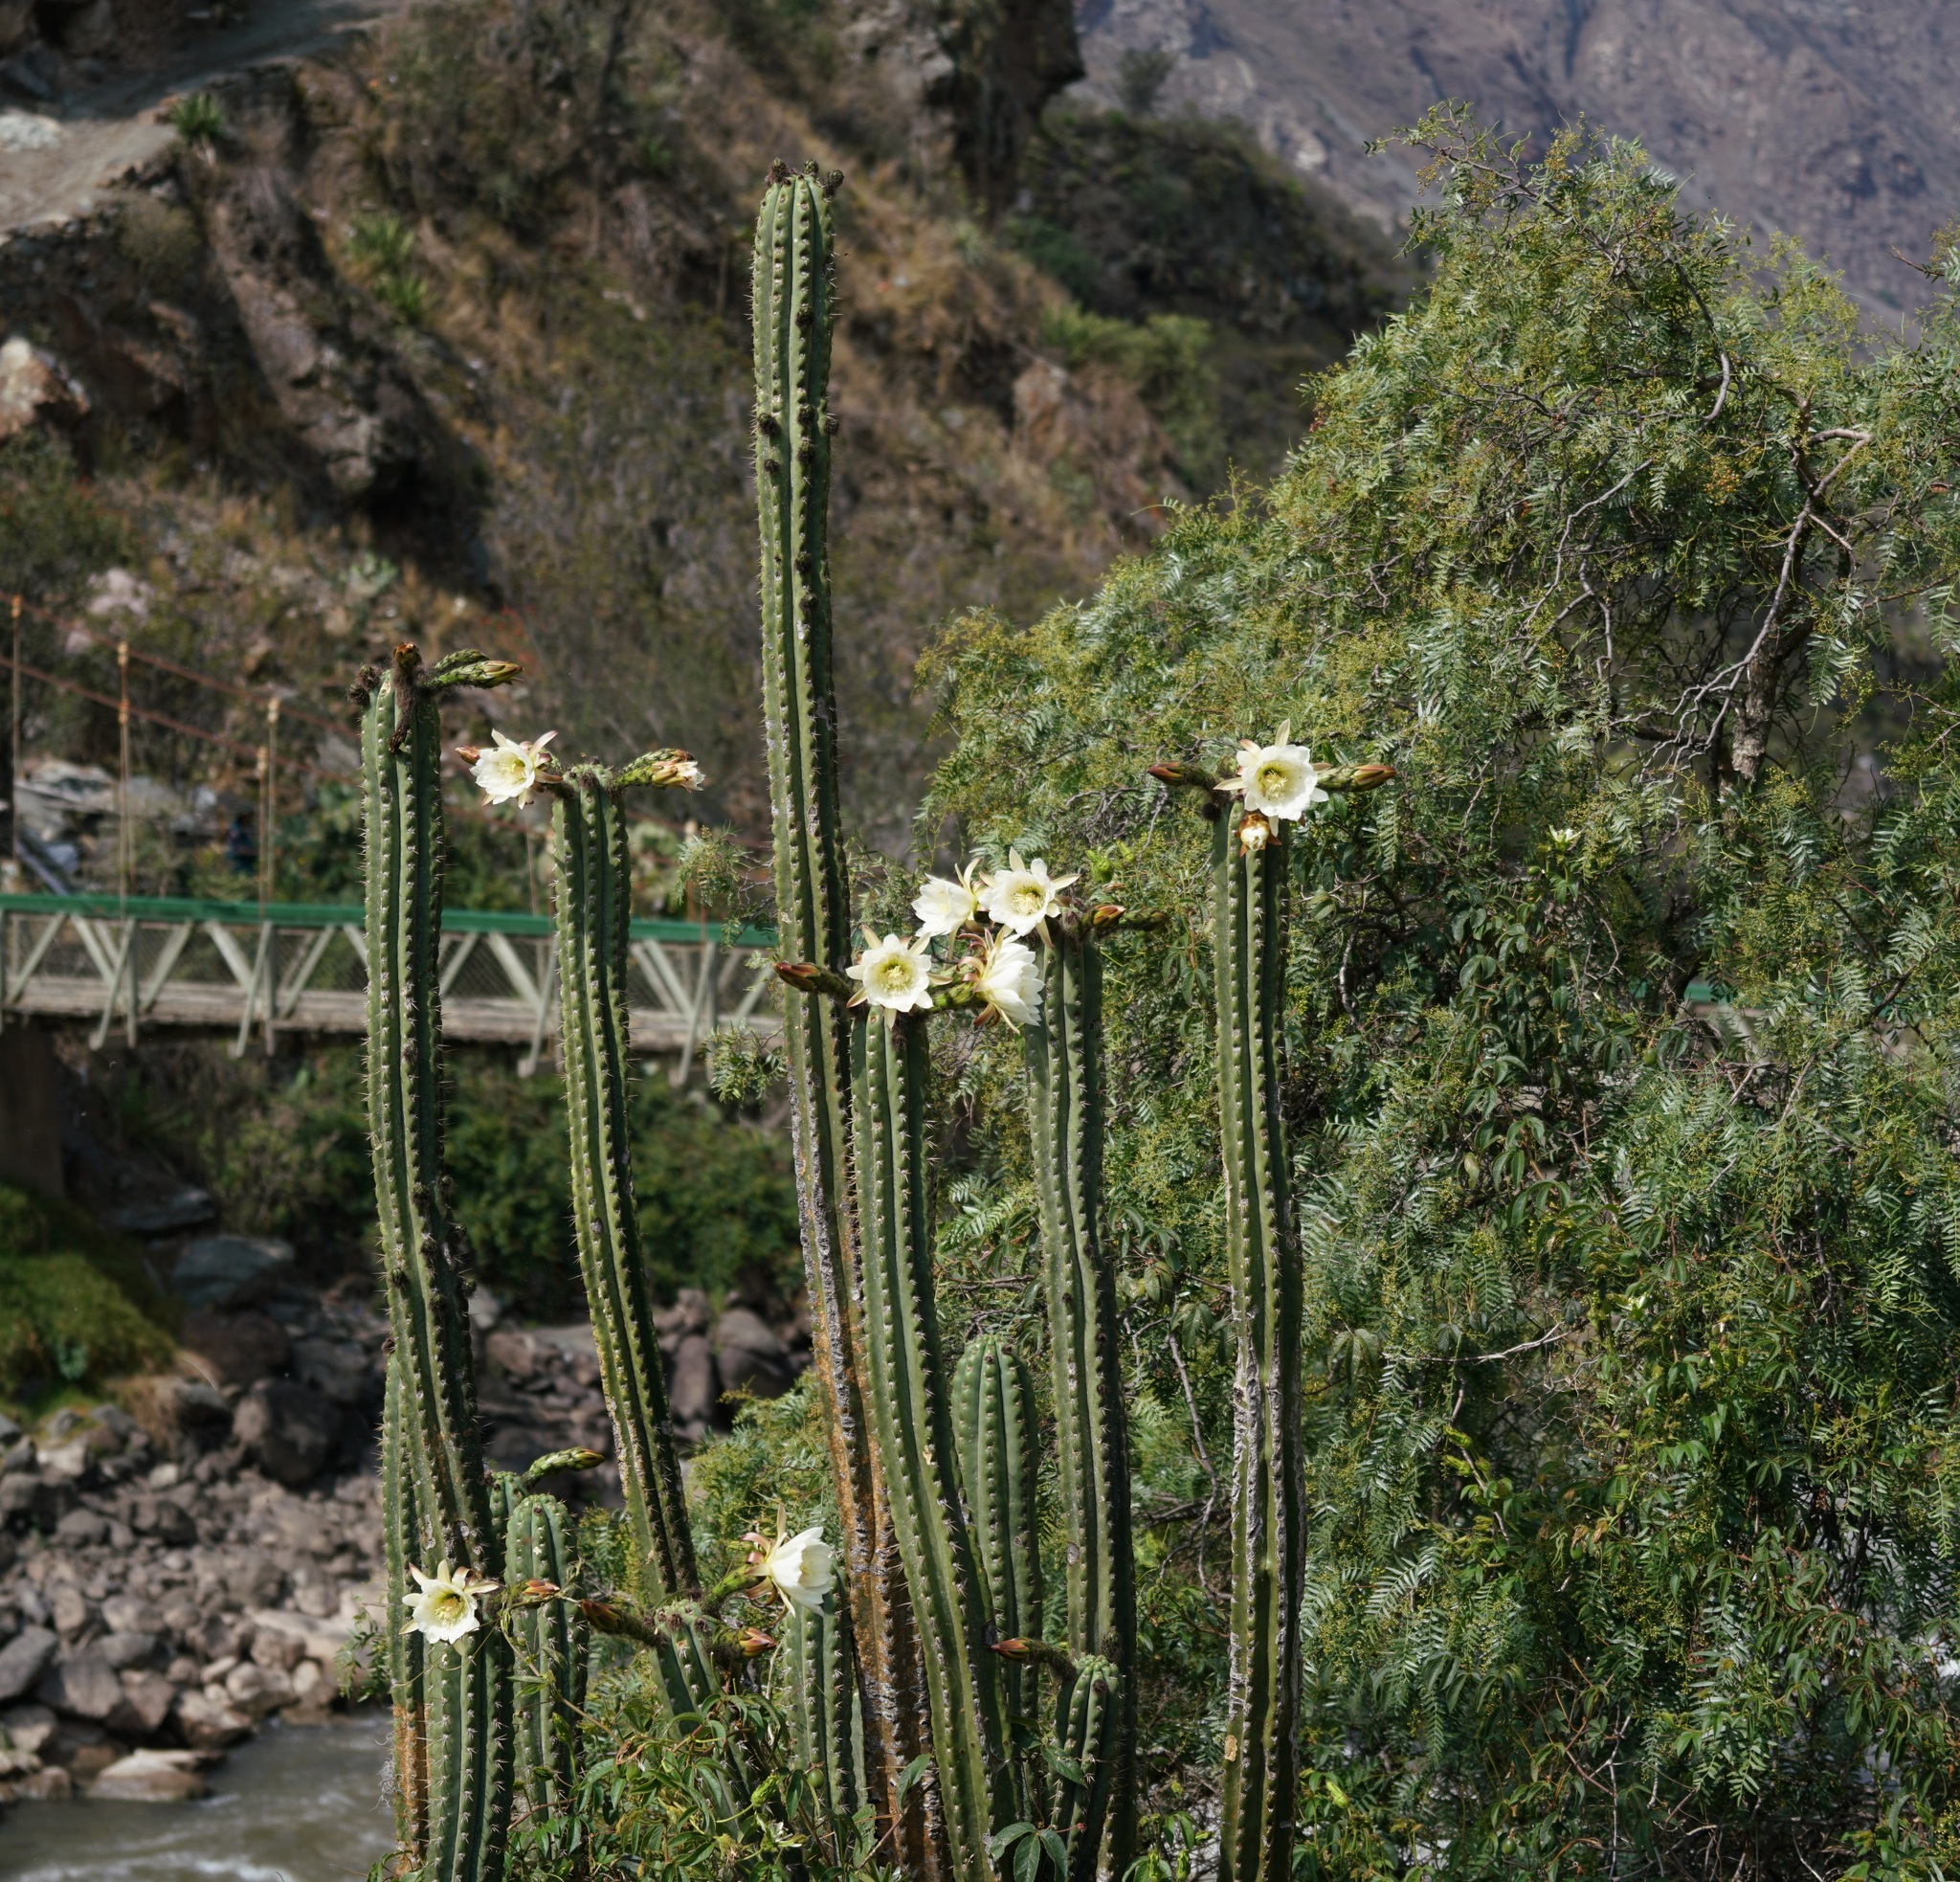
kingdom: Plantae
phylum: Tracheophyta
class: Magnoliopsida
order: Caryophyllales
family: Cactaceae
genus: Trichocereus
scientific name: Trichocereus cuzcoensis
